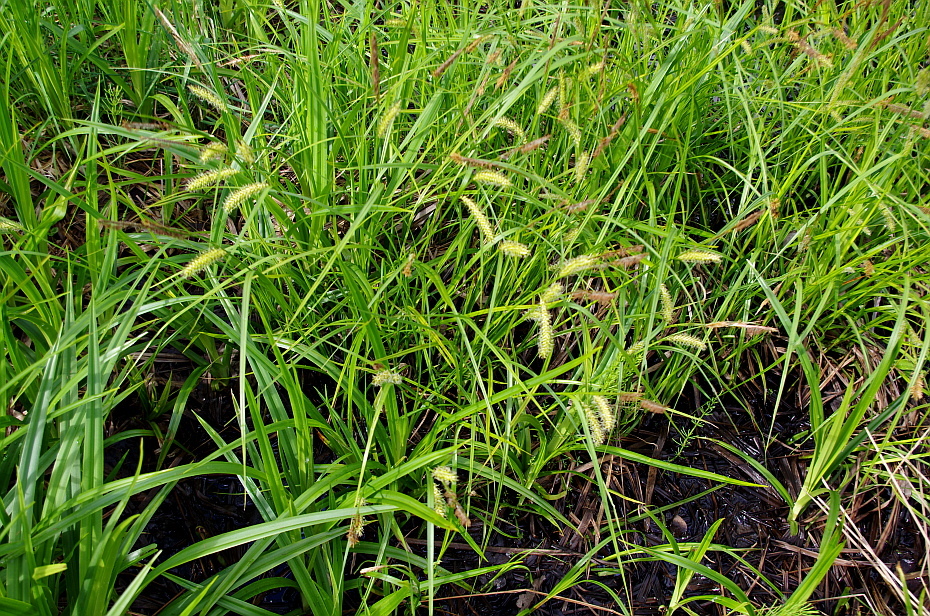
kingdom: Plantae
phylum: Tracheophyta
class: Liliopsida
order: Poales
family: Cyperaceae
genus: Carex
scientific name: Carex vesicaria
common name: Bladder-sedge
